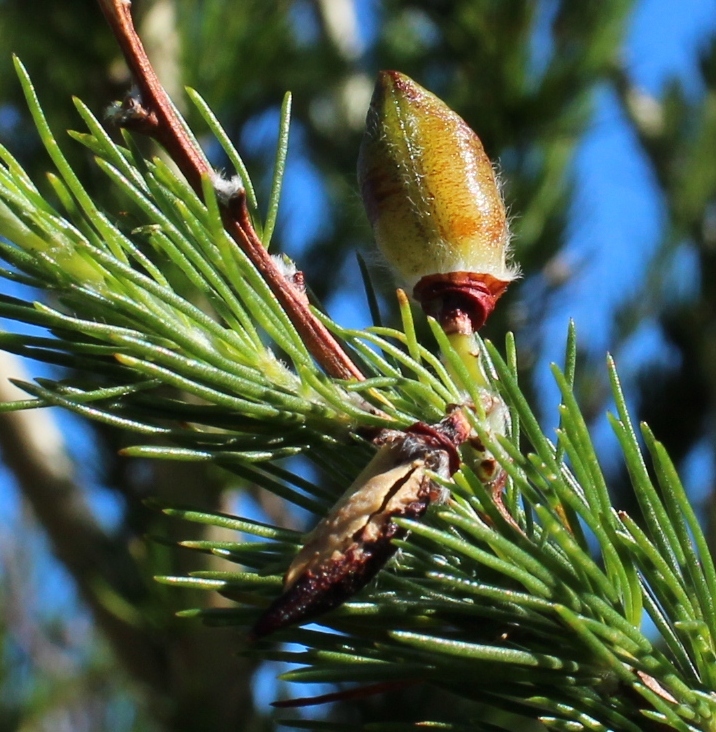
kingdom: Plantae
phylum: Tracheophyta
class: Magnoliopsida
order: Fabales
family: Fabaceae
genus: Aspalathus
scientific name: Aspalathus uniflora
